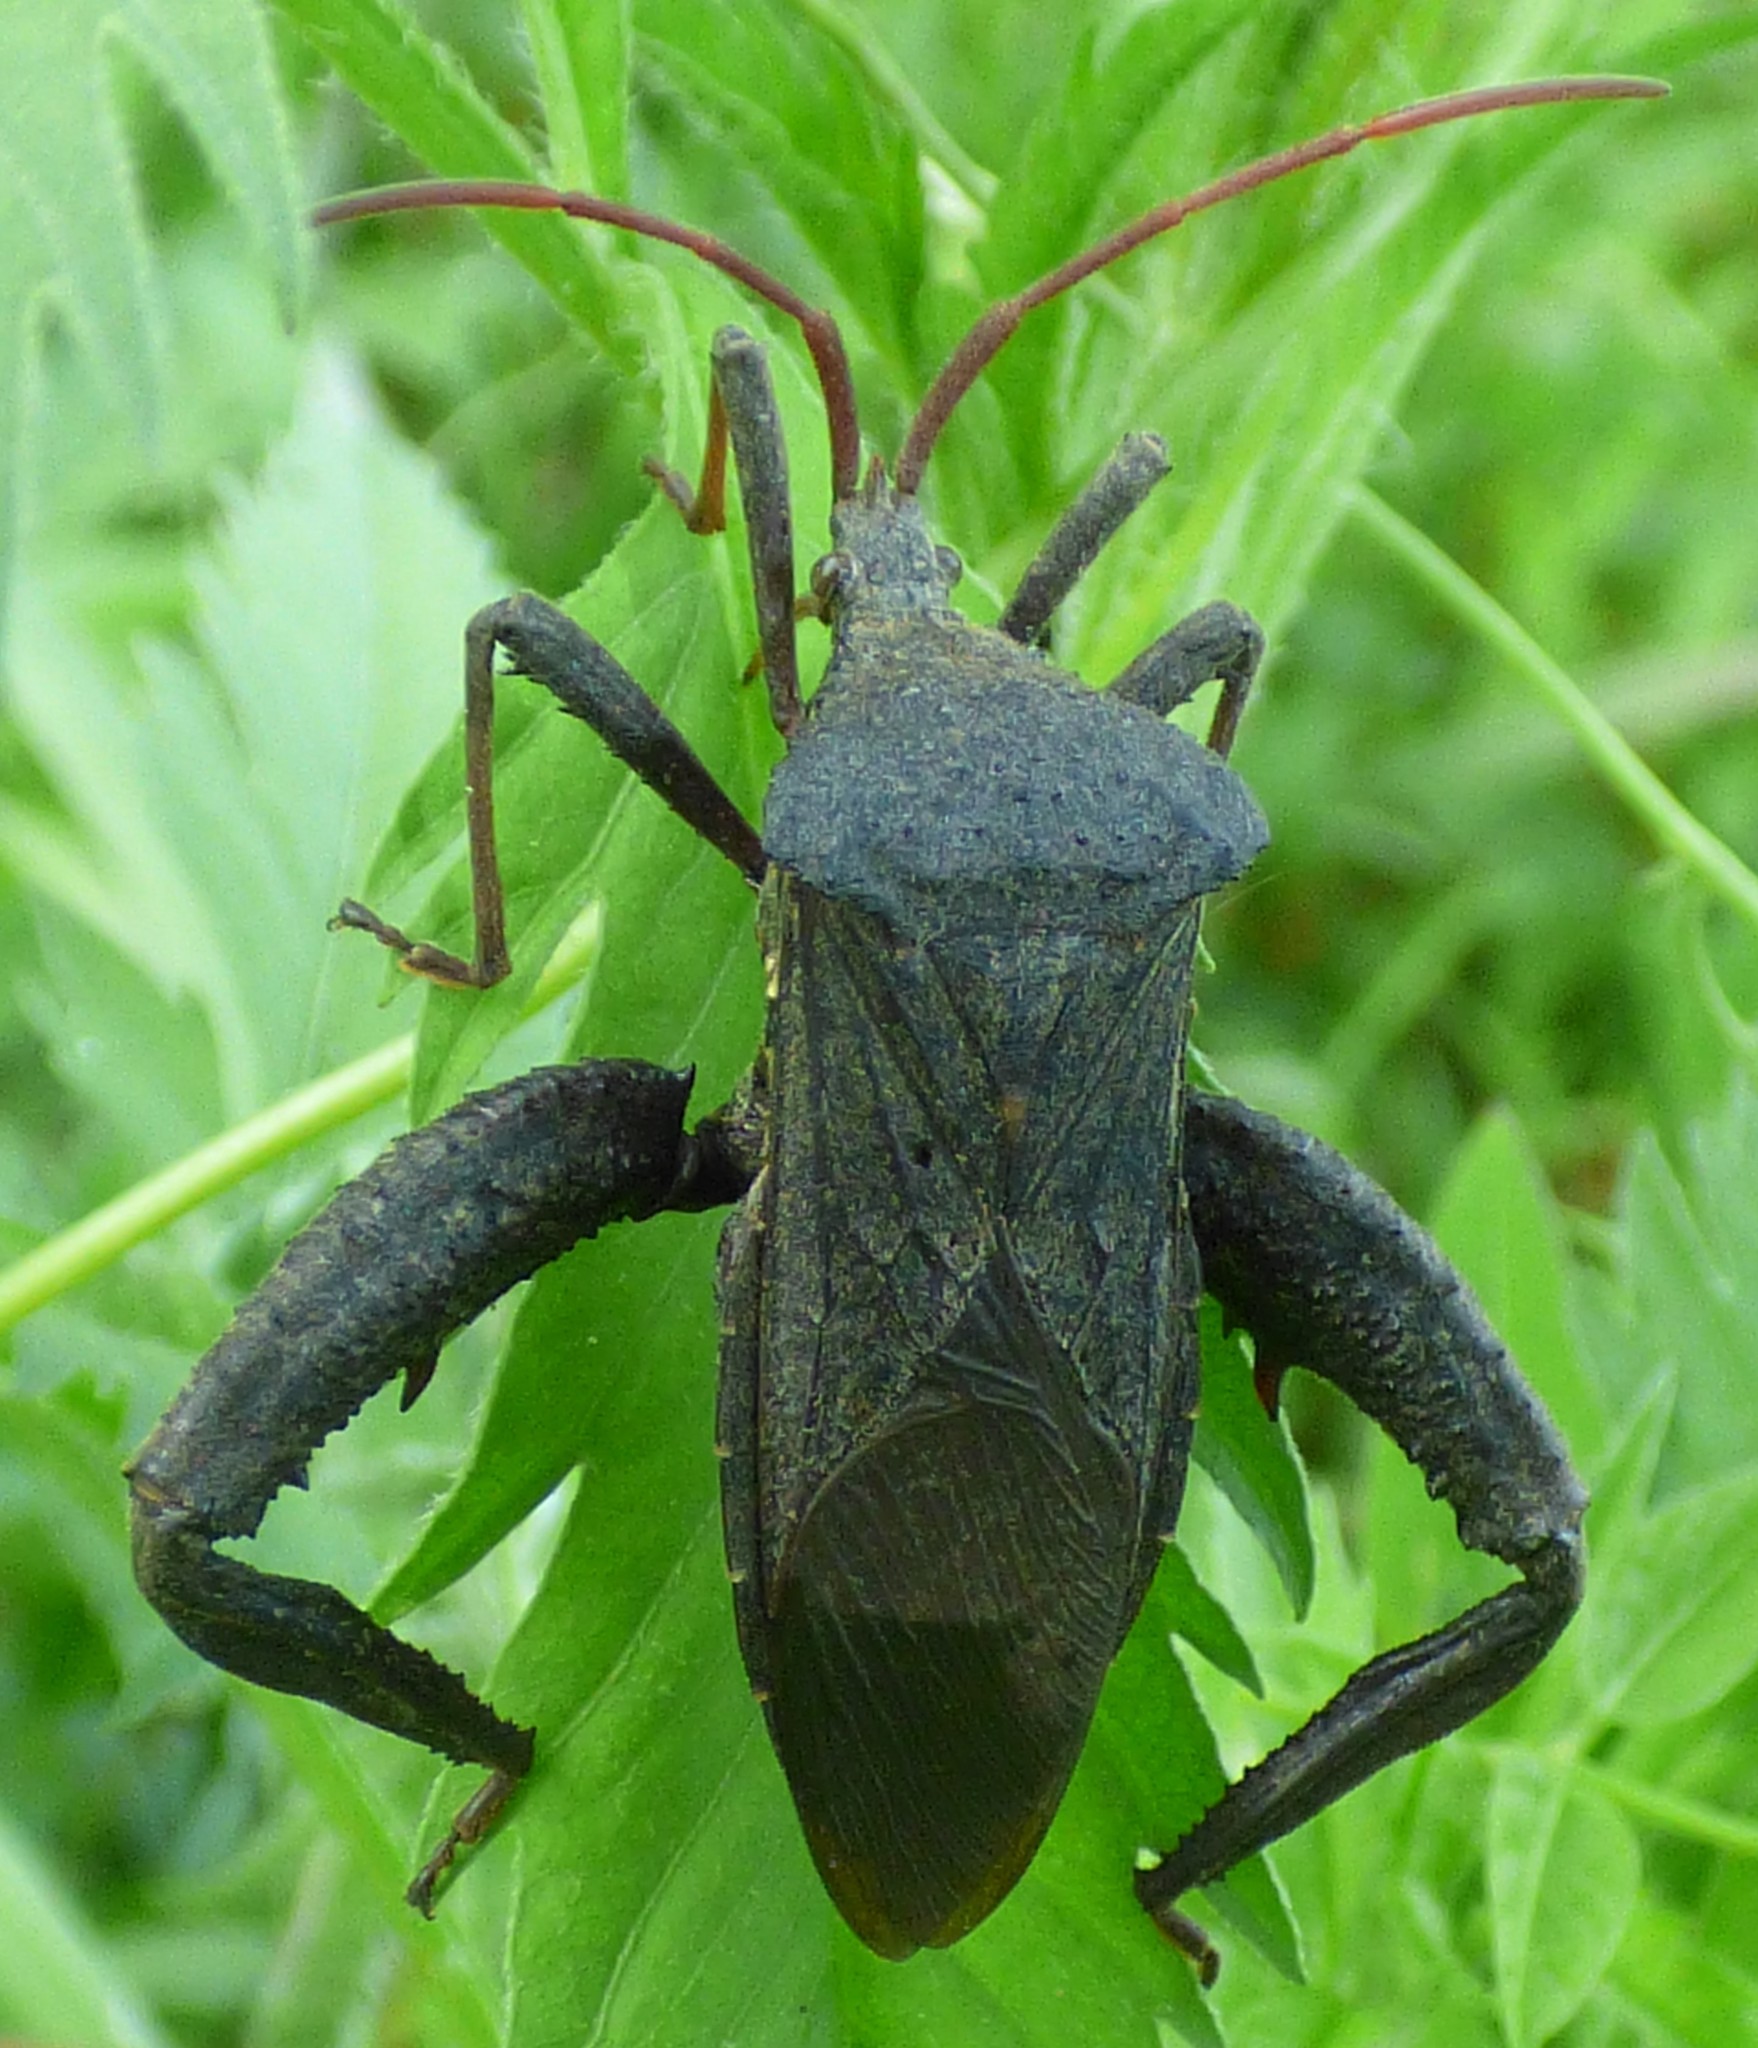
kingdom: Animalia
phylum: Arthropoda
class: Insecta
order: Hemiptera
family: Coreidae
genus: Acanthocephala
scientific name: Acanthocephala femorata
